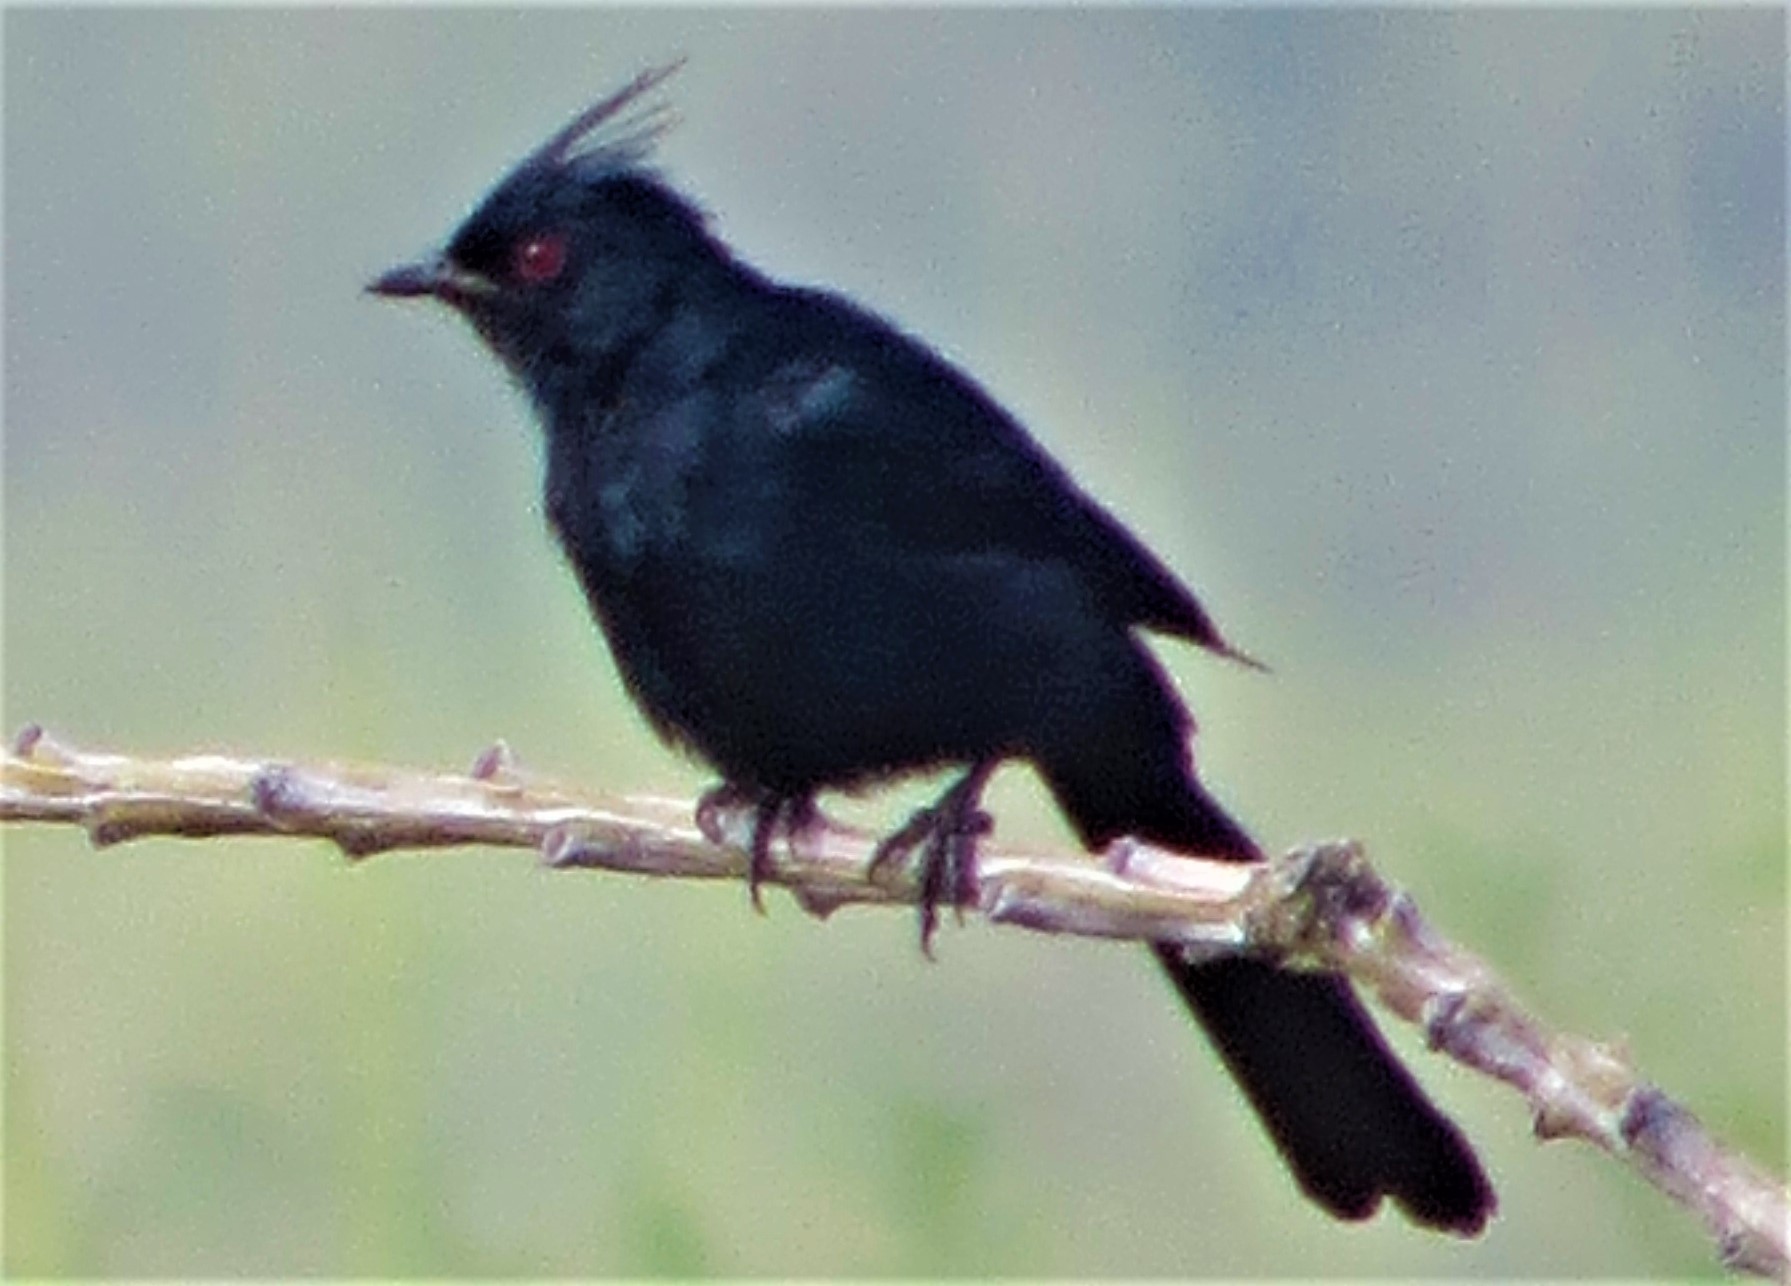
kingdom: Animalia
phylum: Chordata
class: Aves
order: Passeriformes
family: Ptilogonatidae
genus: Phainopepla
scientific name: Phainopepla nitens
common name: Phainopepla
